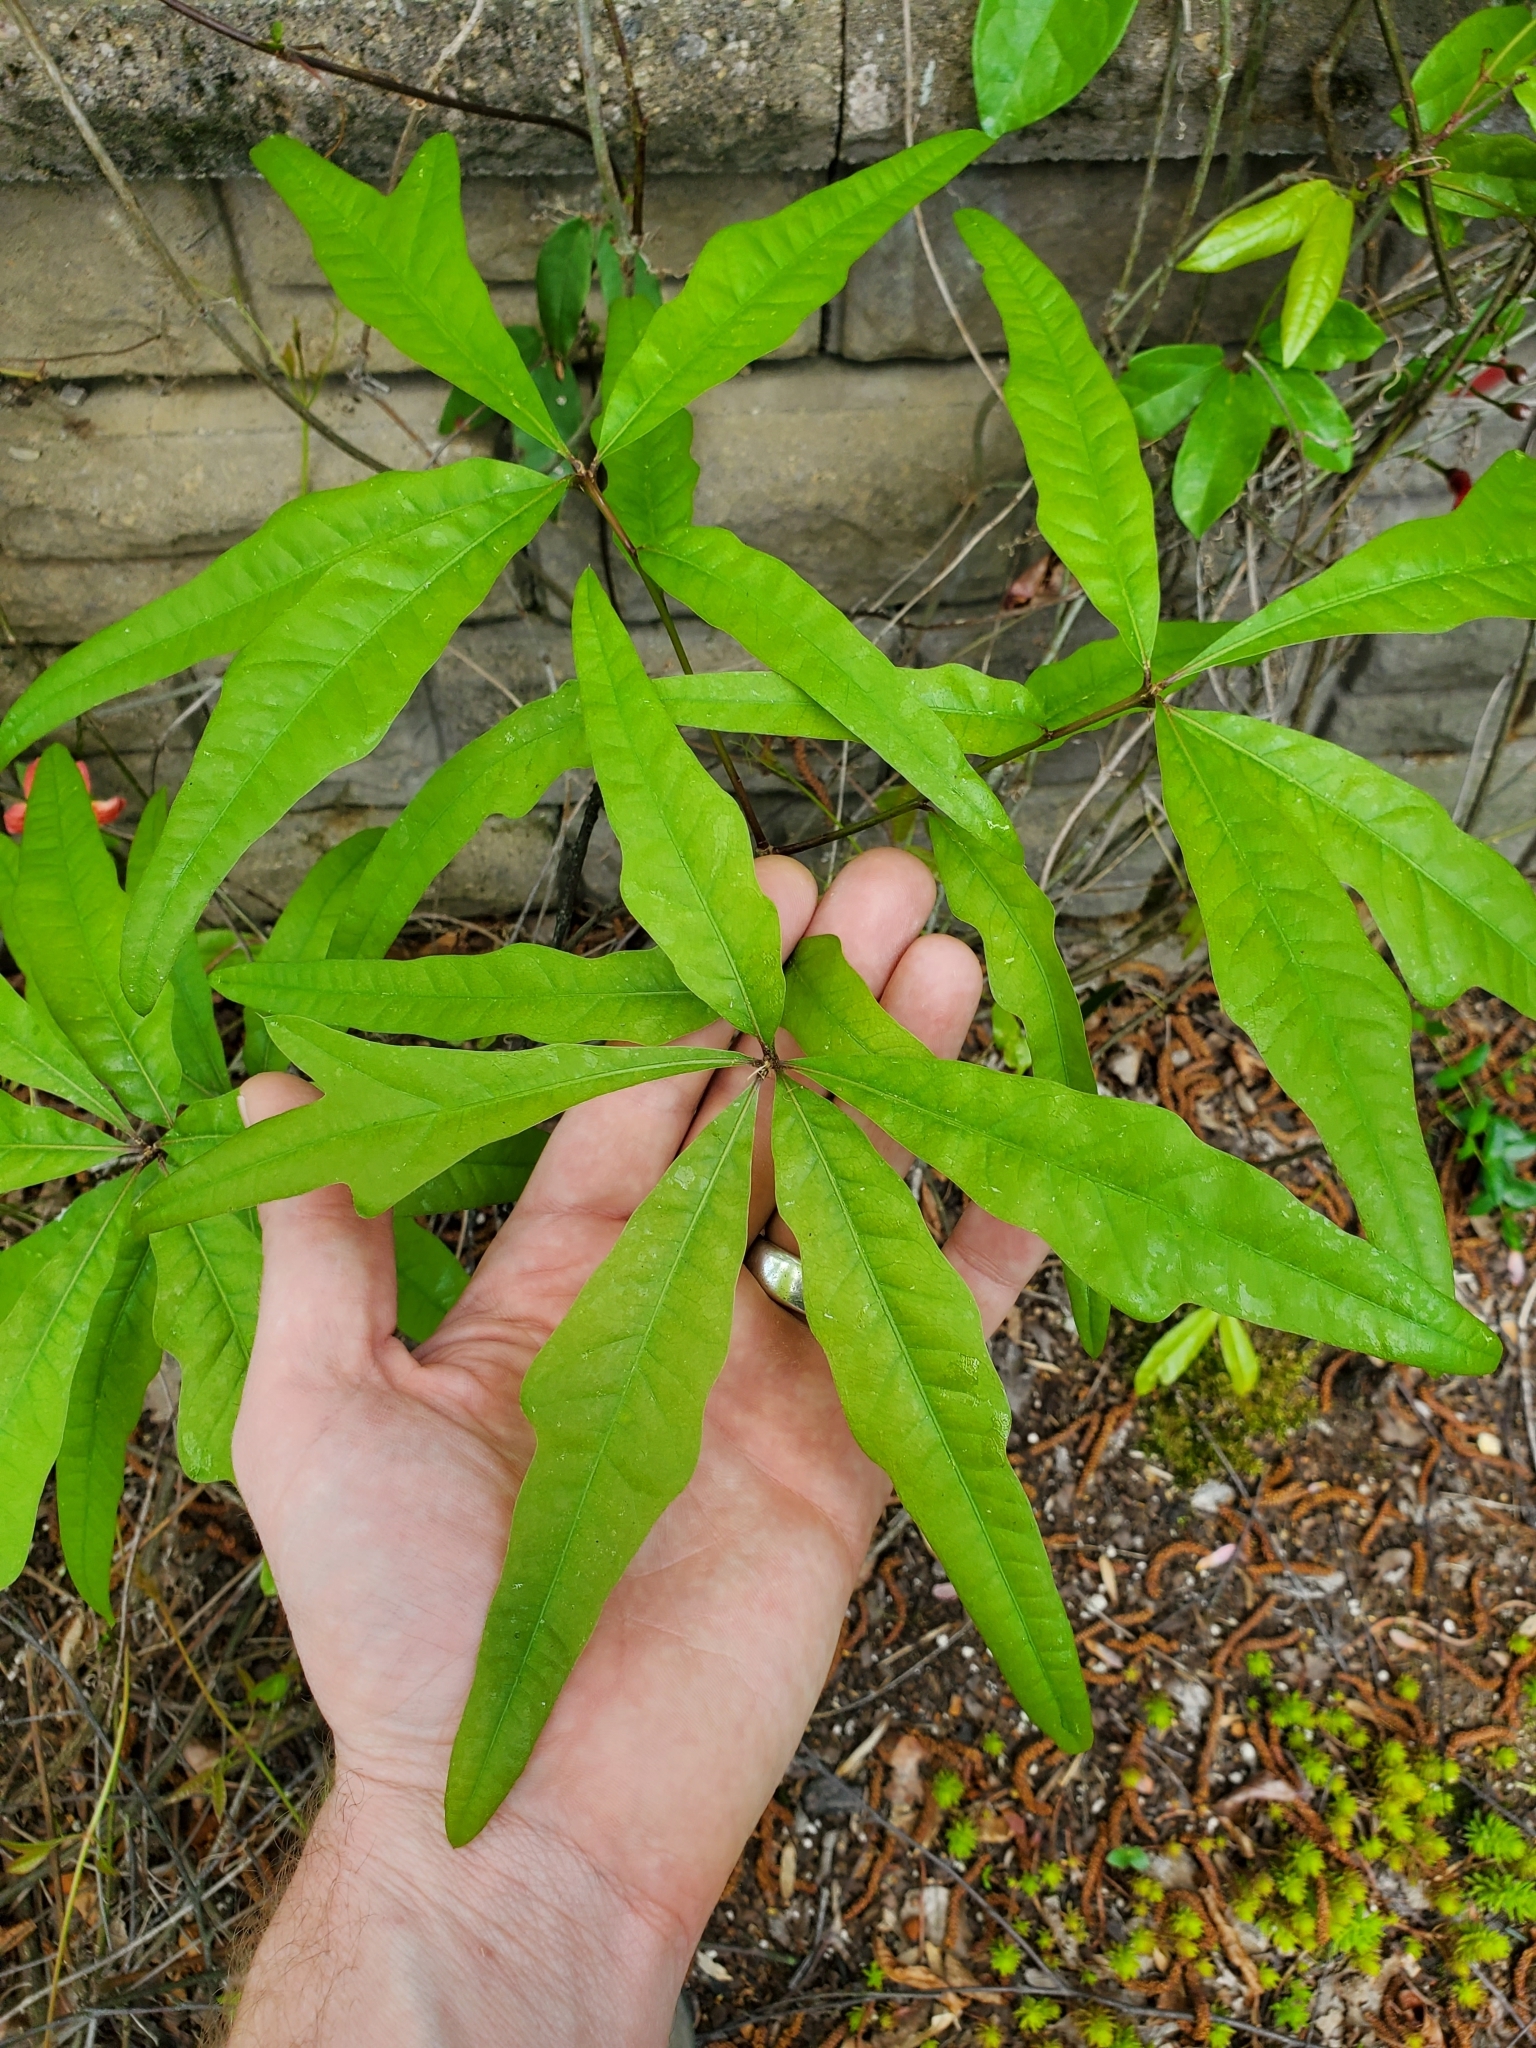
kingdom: Plantae
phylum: Tracheophyta
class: Magnoliopsida
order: Fagales
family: Fagaceae
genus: Quercus
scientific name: Quercus phellos
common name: Willow oak
